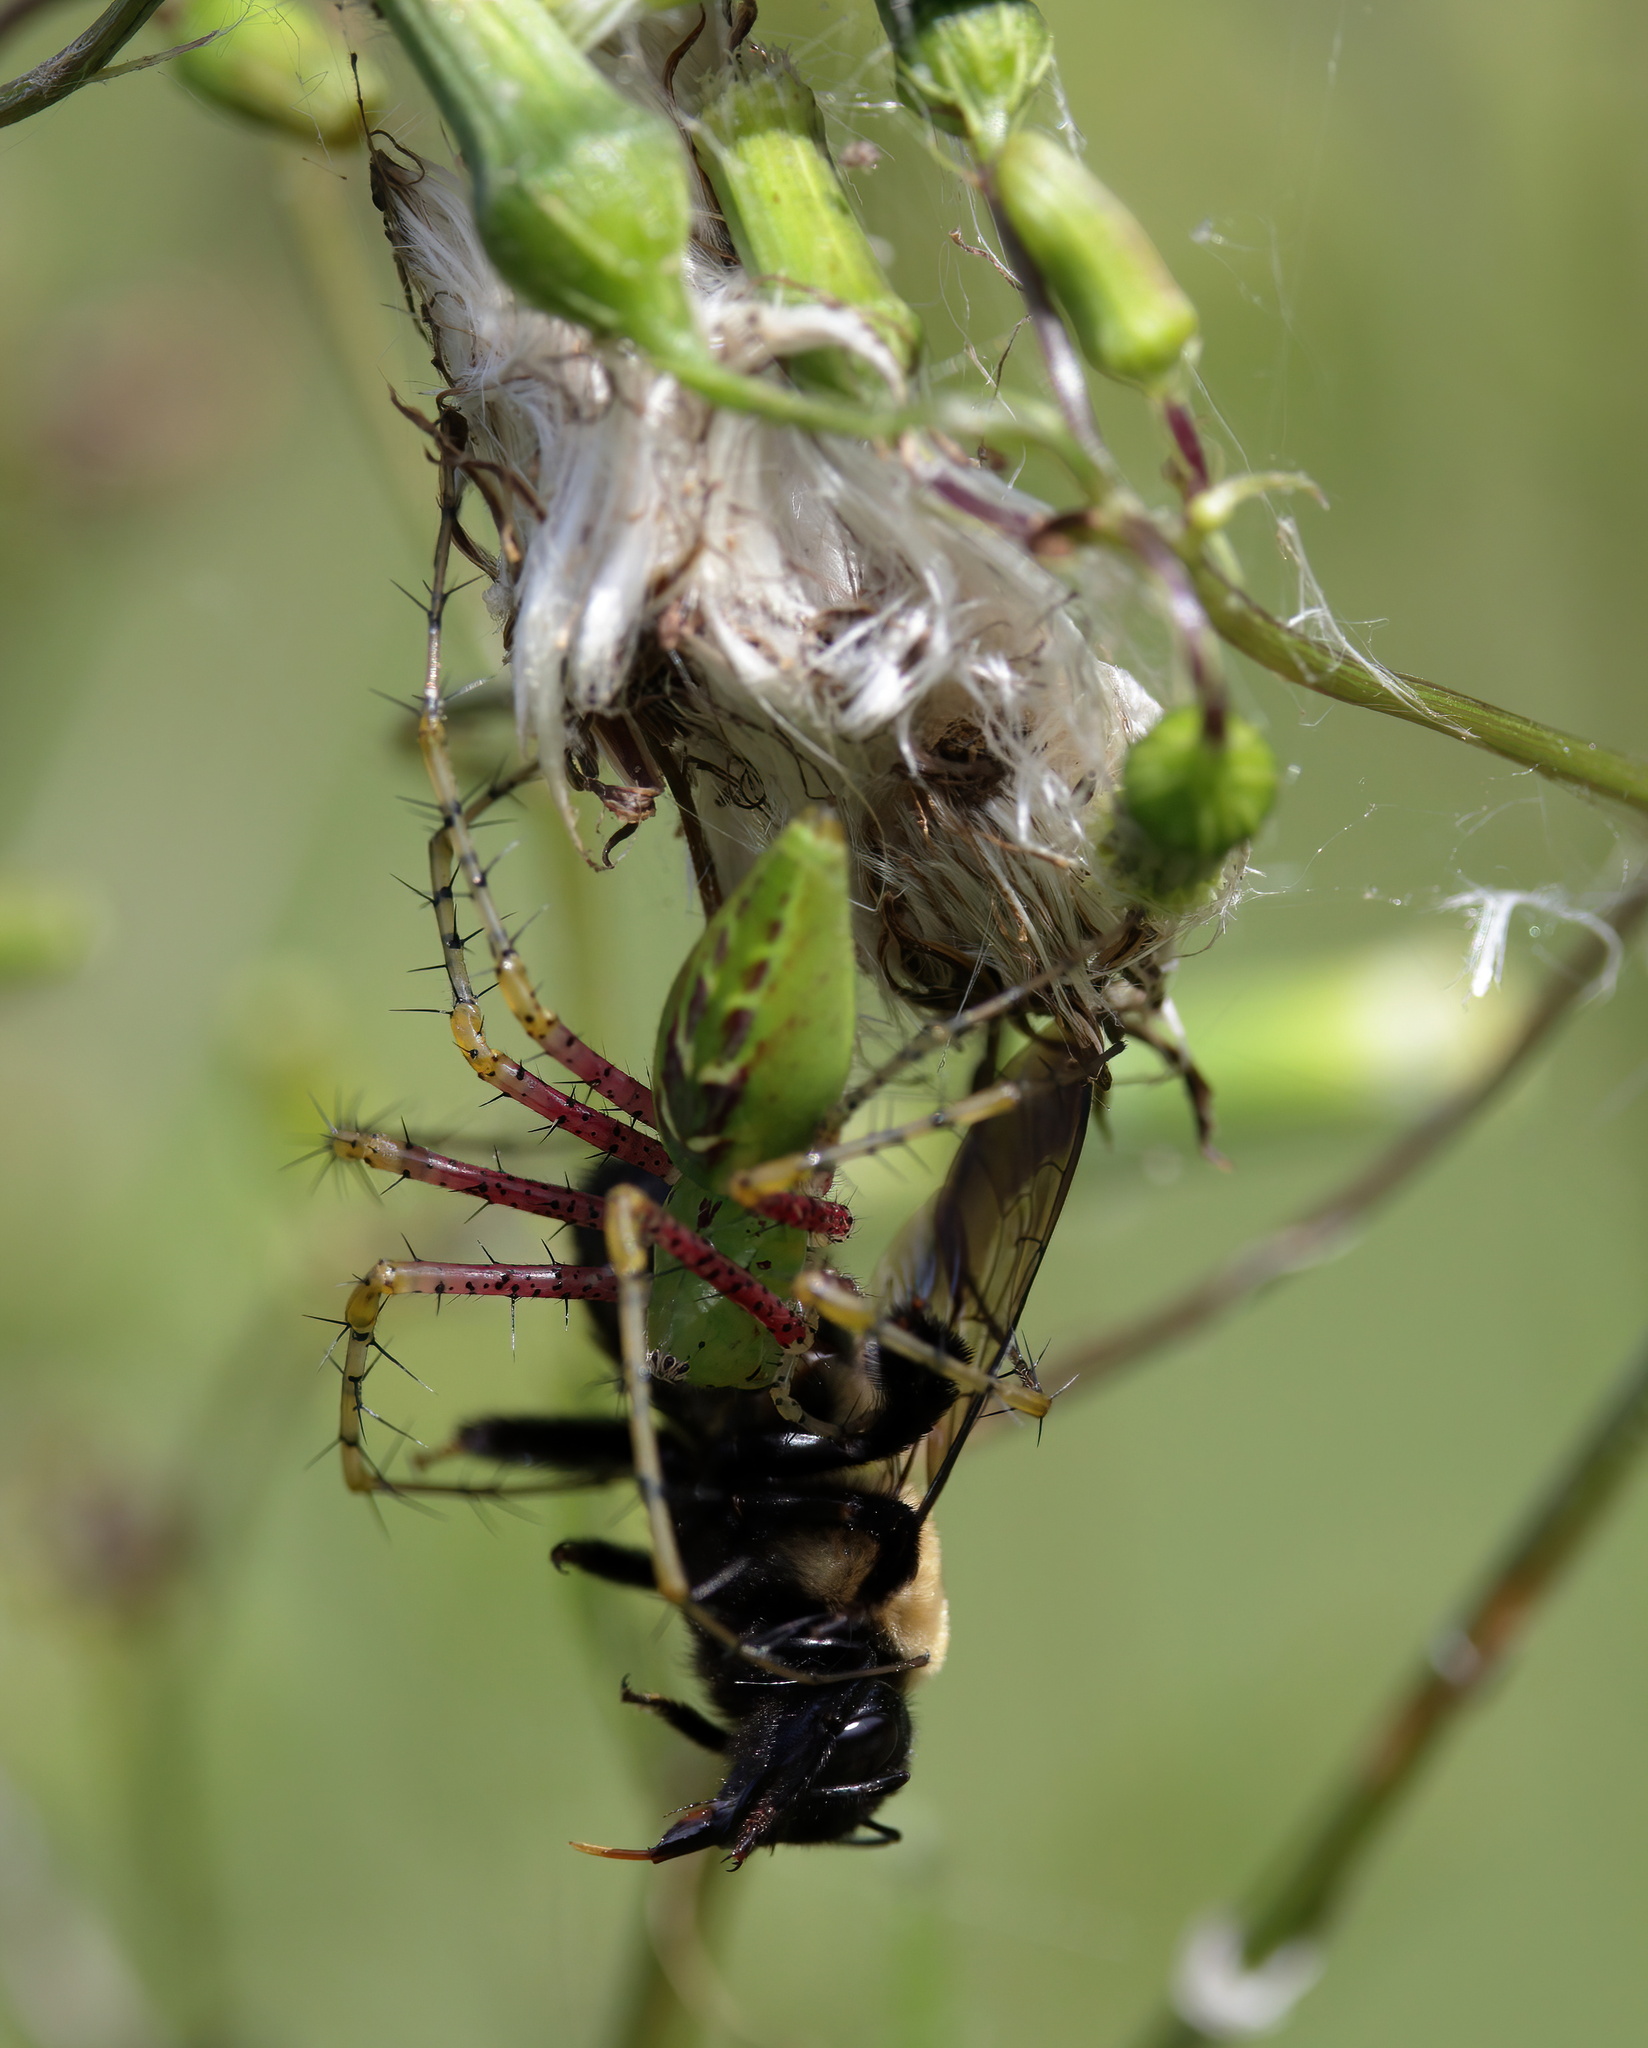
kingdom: Animalia
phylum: Arthropoda
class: Arachnida
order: Araneae
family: Oxyopidae
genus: Peucetia
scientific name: Peucetia viridans
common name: Lynx spiders
